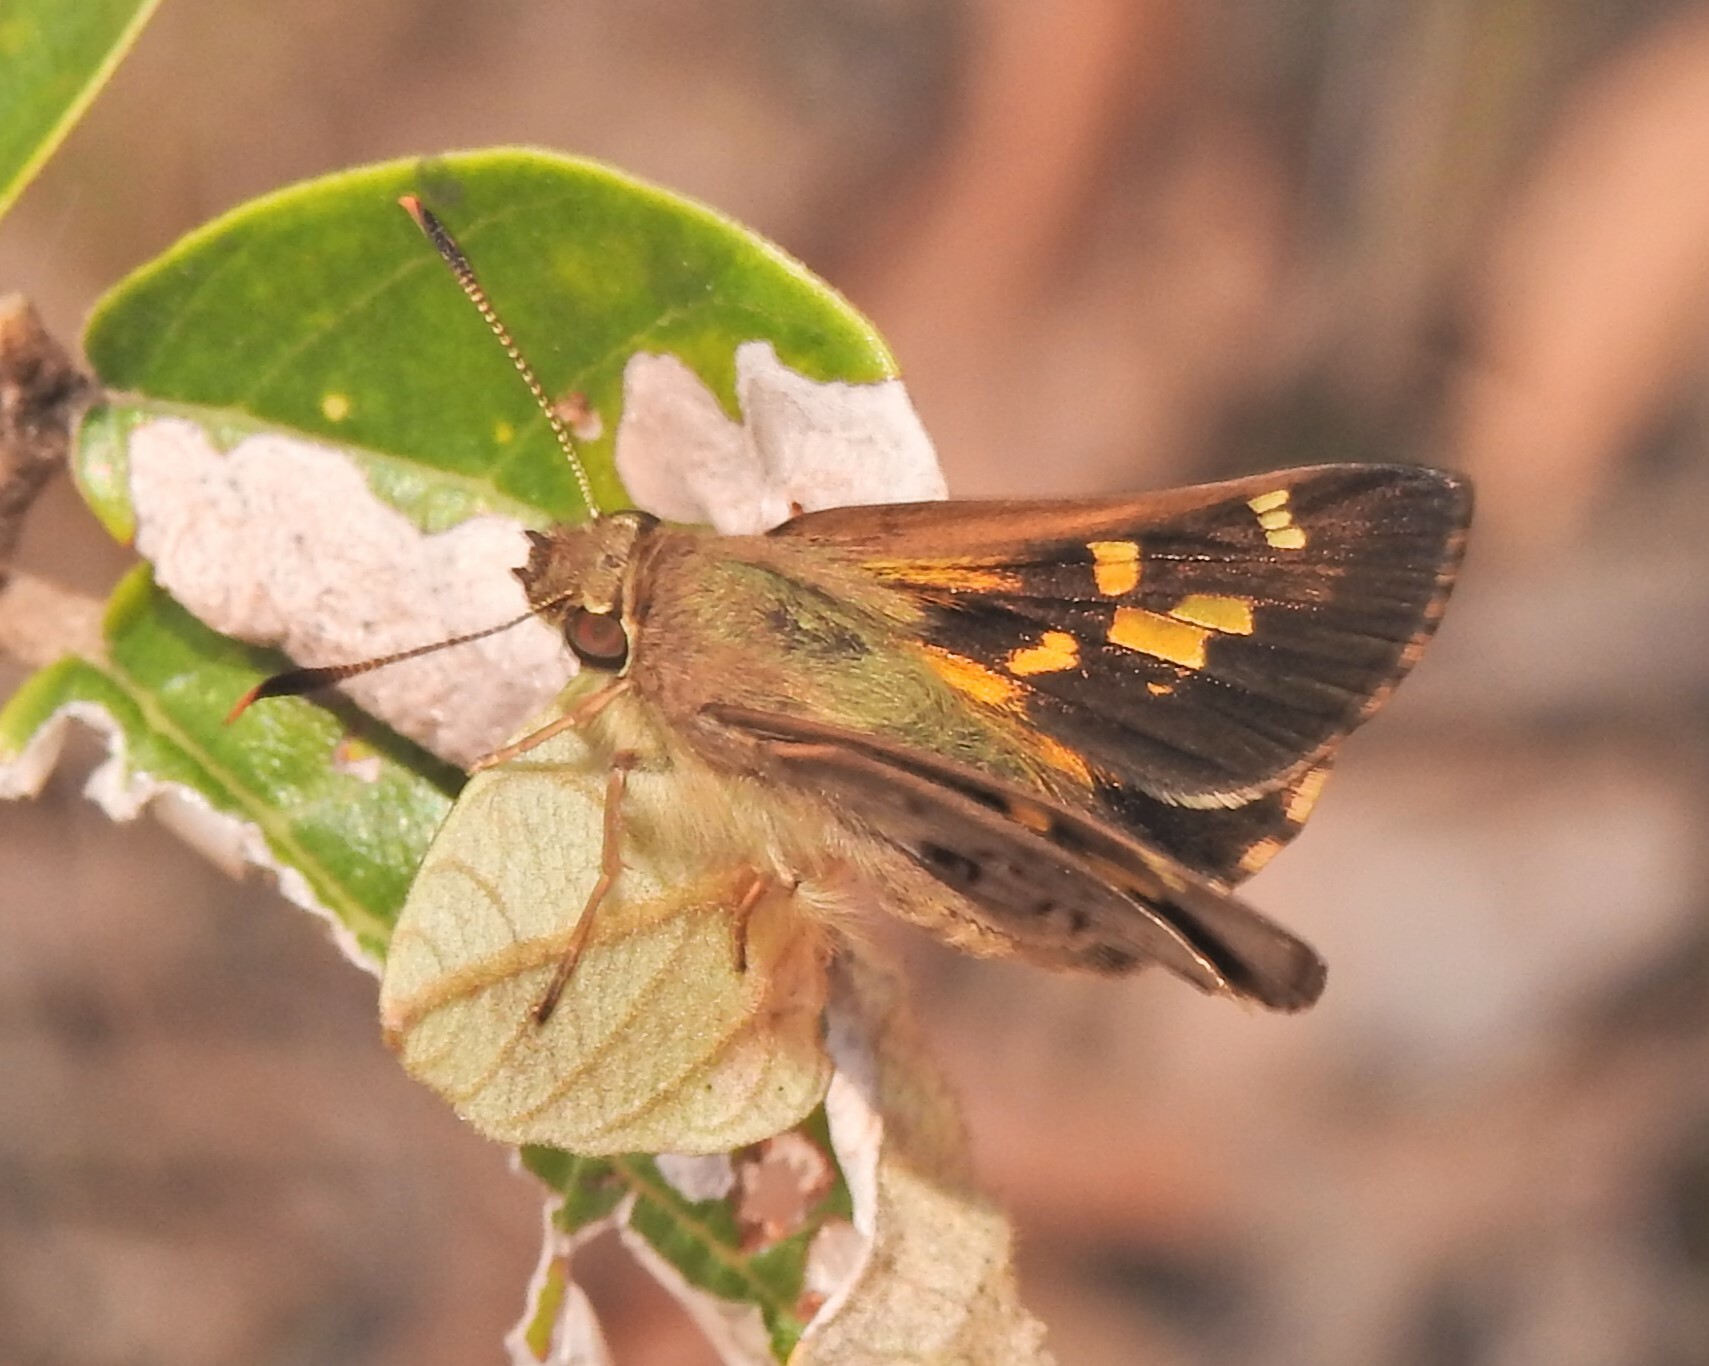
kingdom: Animalia
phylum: Arthropoda
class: Insecta
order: Lepidoptera
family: Hesperiidae
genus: Trapezites
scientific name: Trapezites maheta
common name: Northern silver ochre
